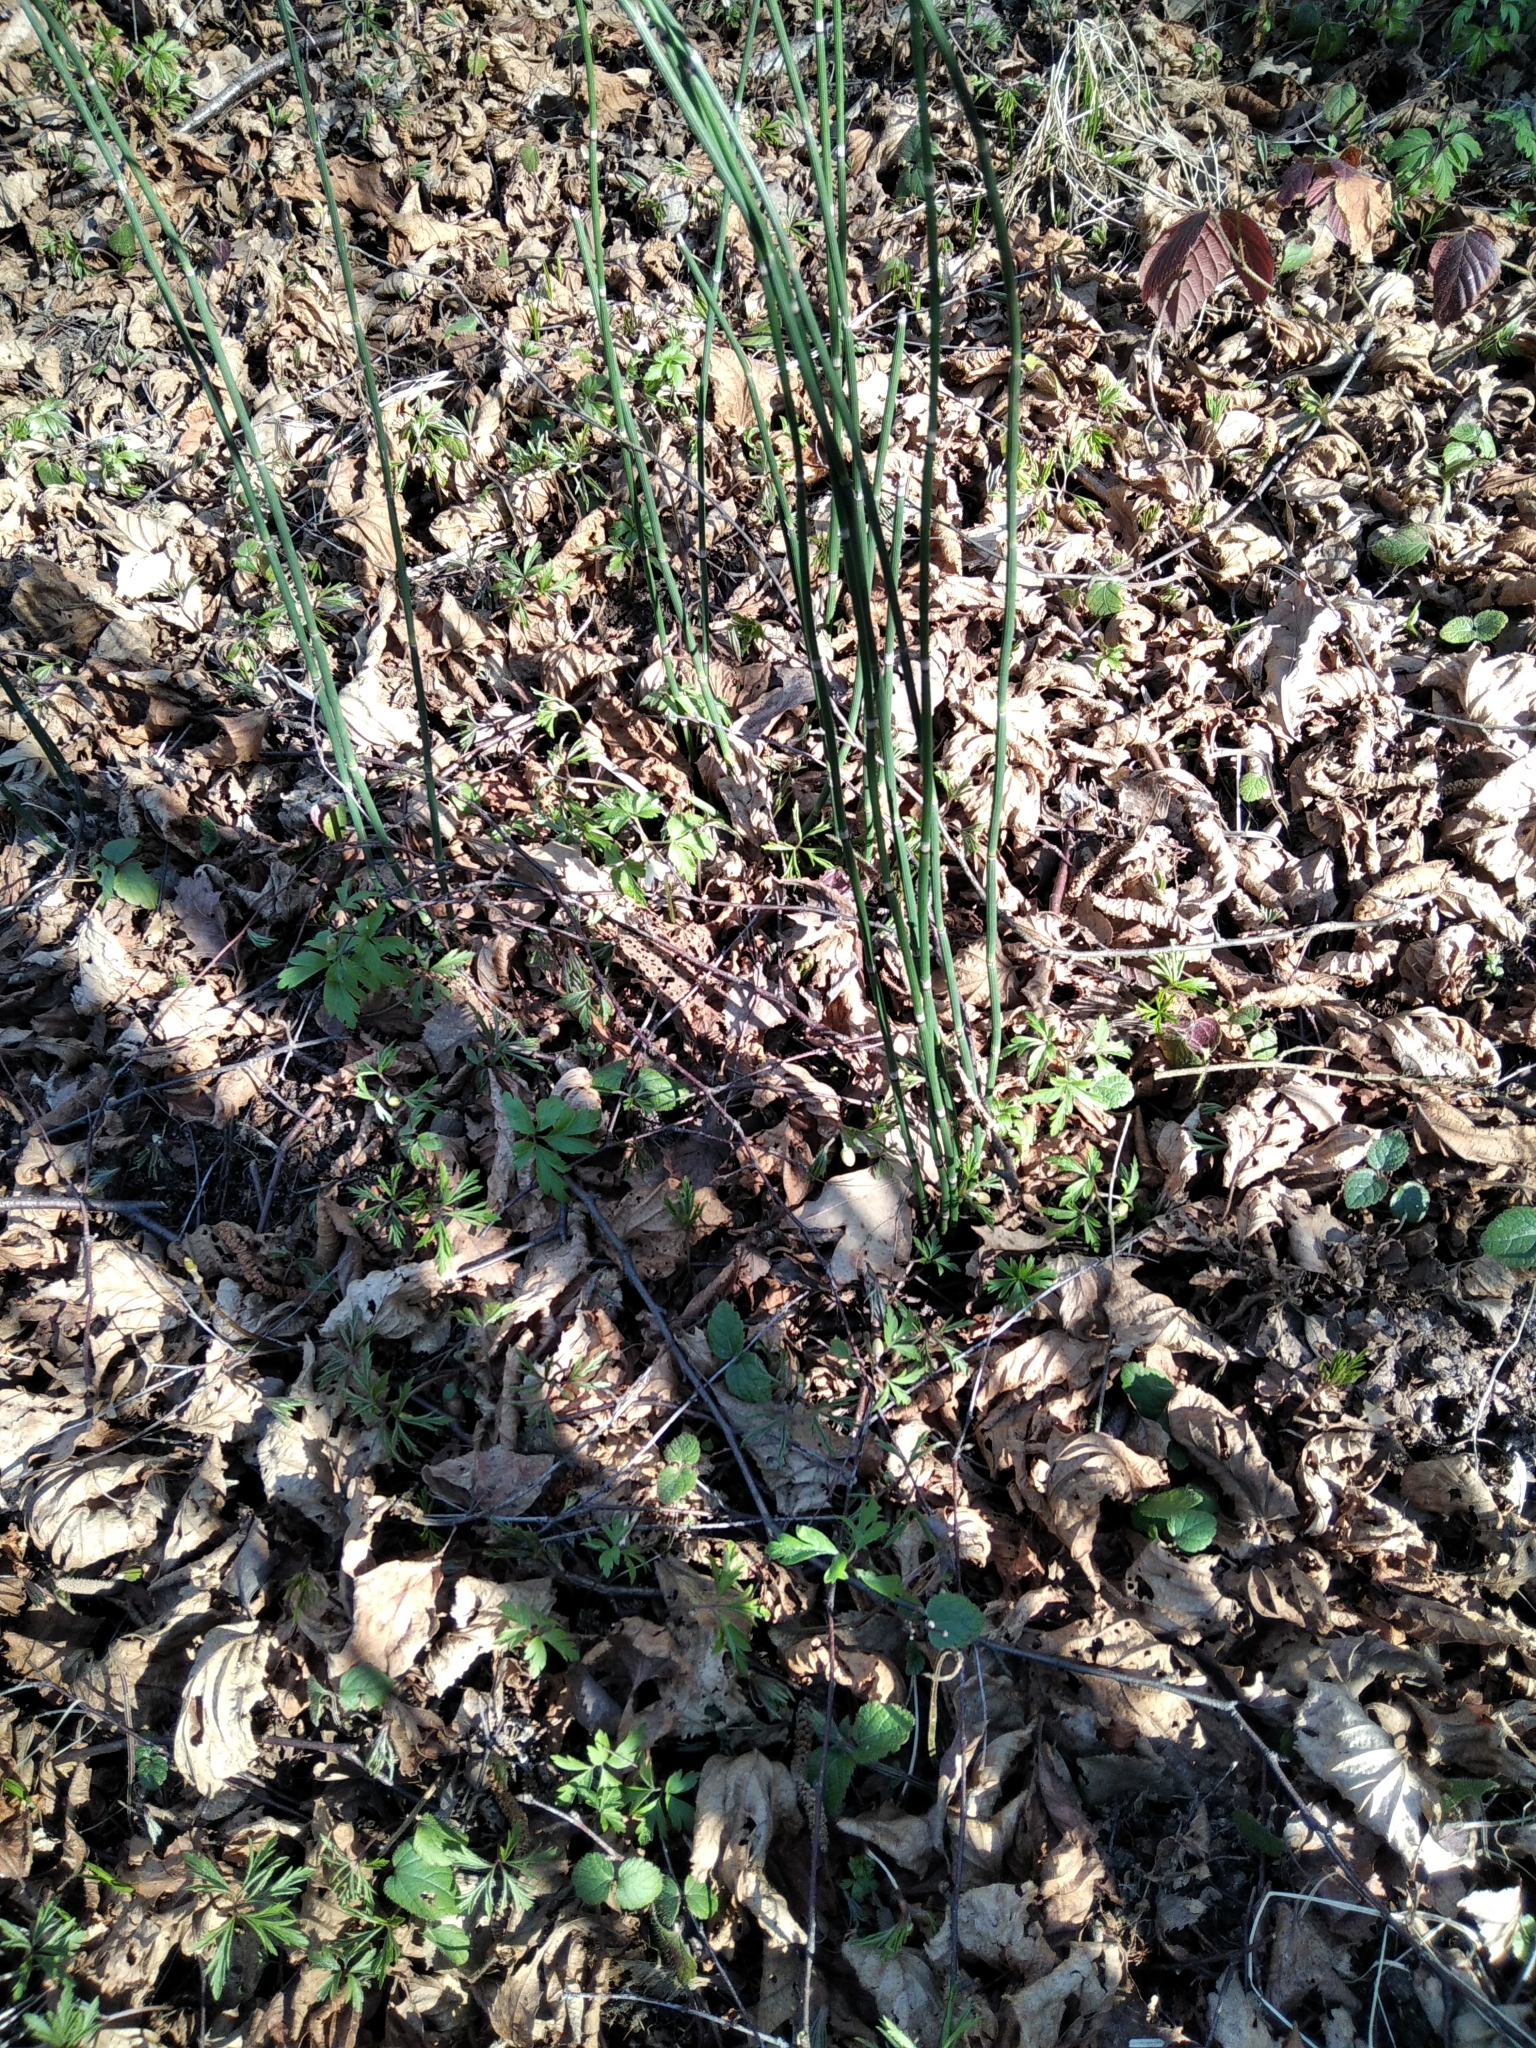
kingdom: Plantae
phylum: Tracheophyta
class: Polypodiopsida
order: Equisetales
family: Equisetaceae
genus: Equisetum
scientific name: Equisetum hyemale
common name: Rough horsetail
